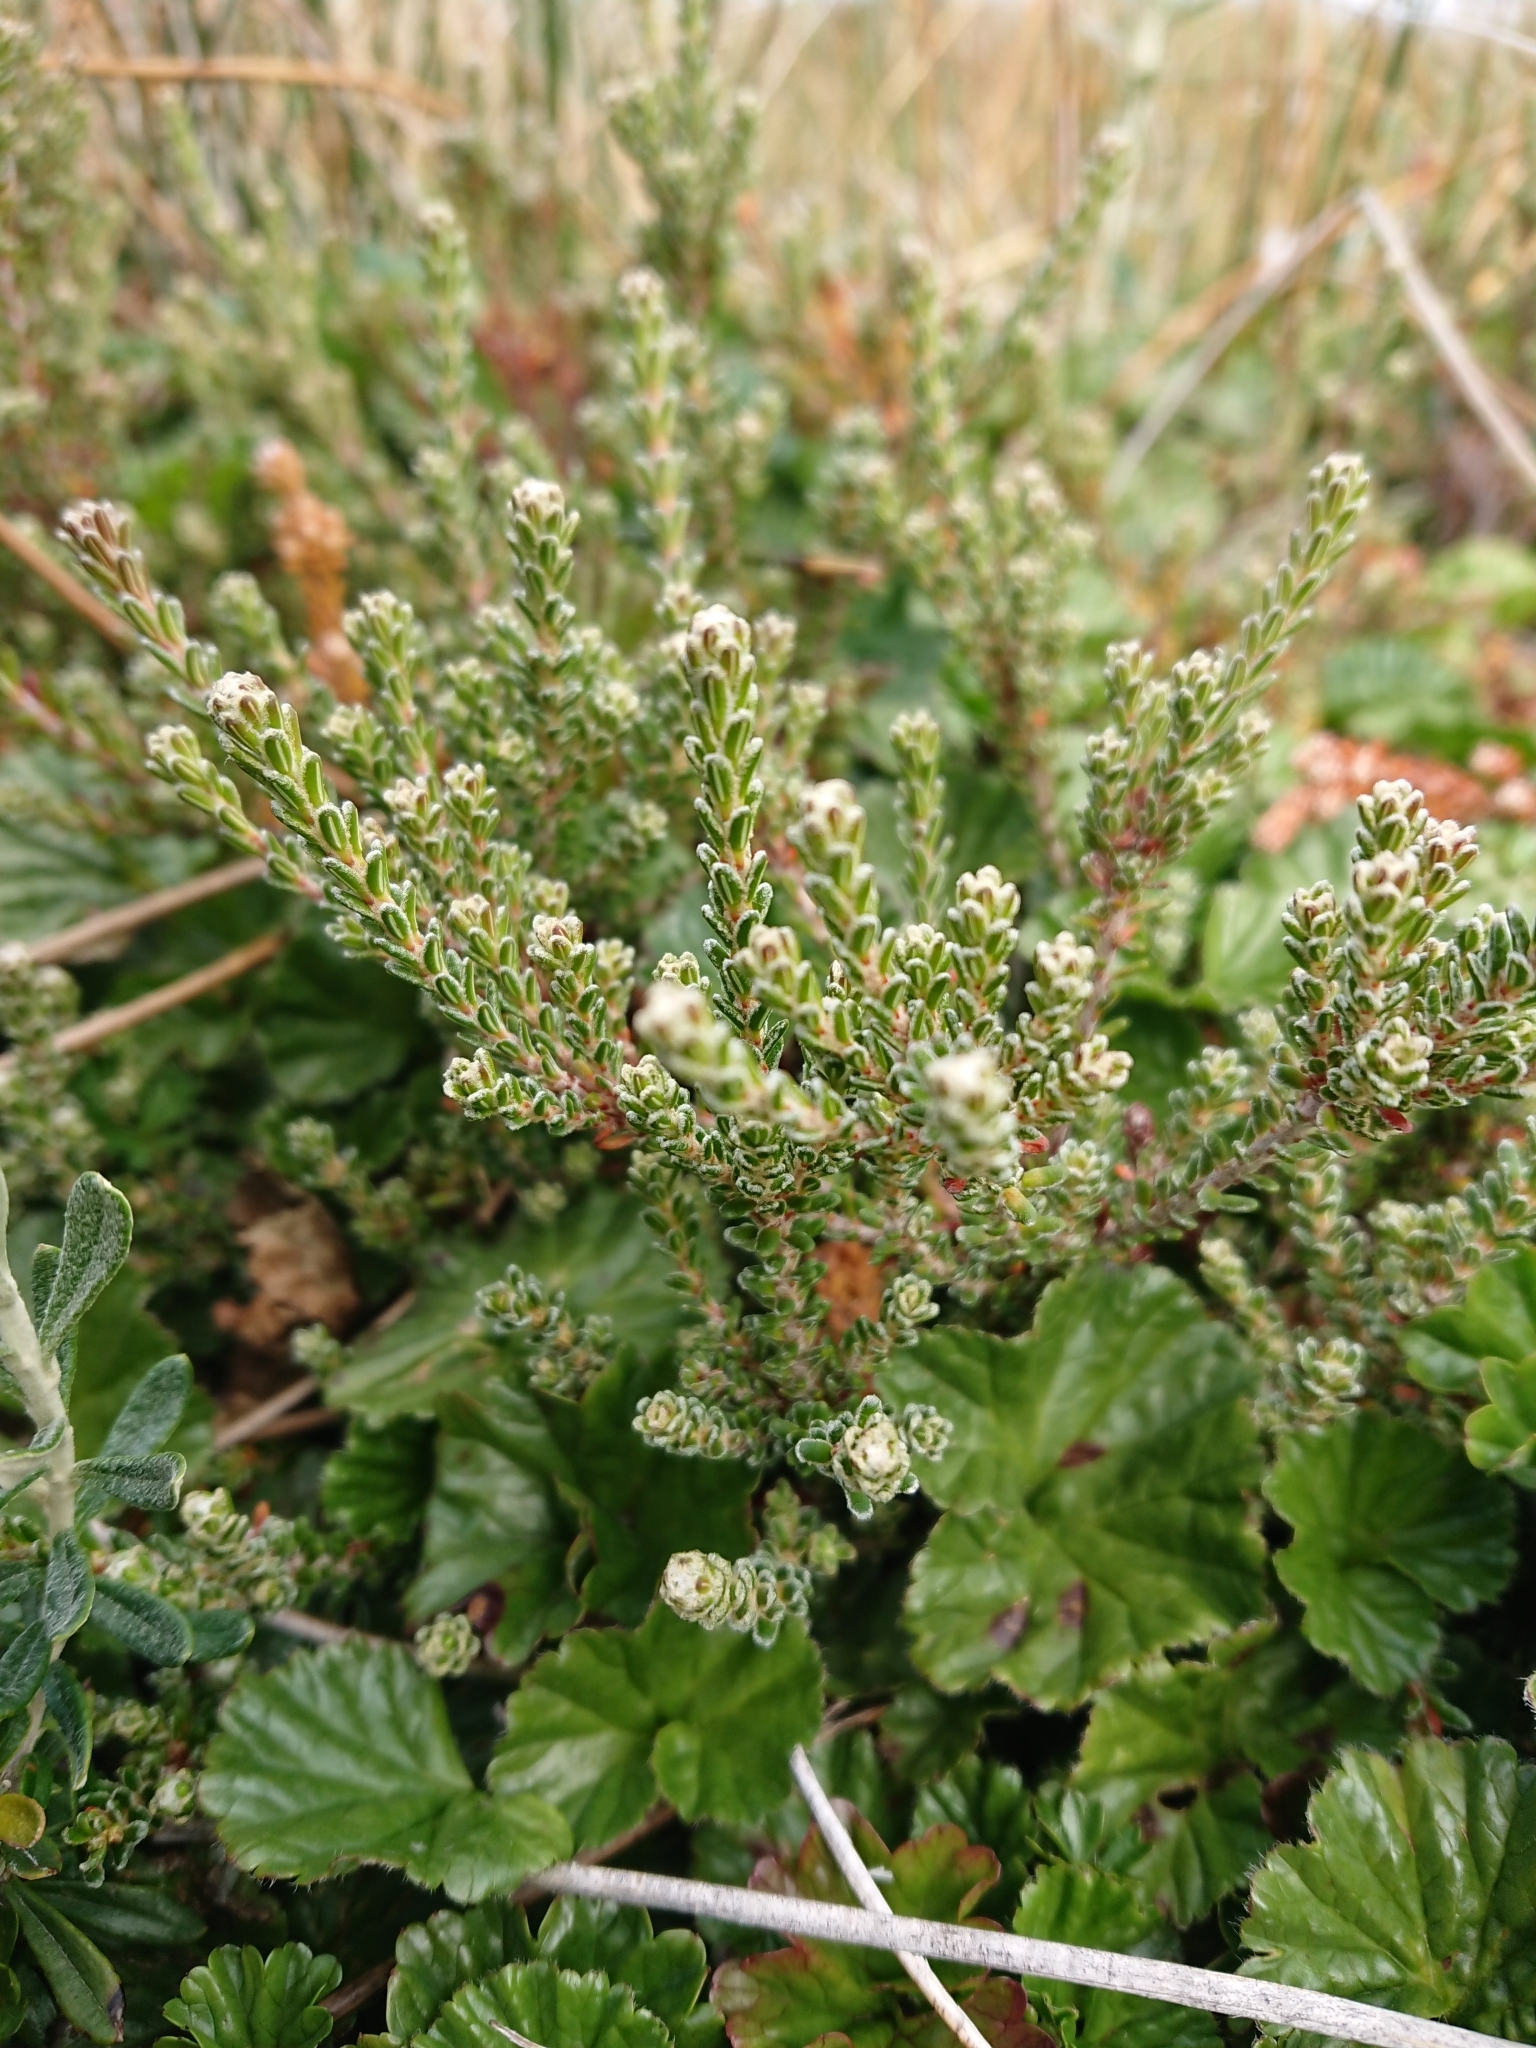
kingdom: Plantae
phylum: Tracheophyta
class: Magnoliopsida
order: Ericales
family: Ericaceae
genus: Empetrum
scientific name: Empetrum rubrum
